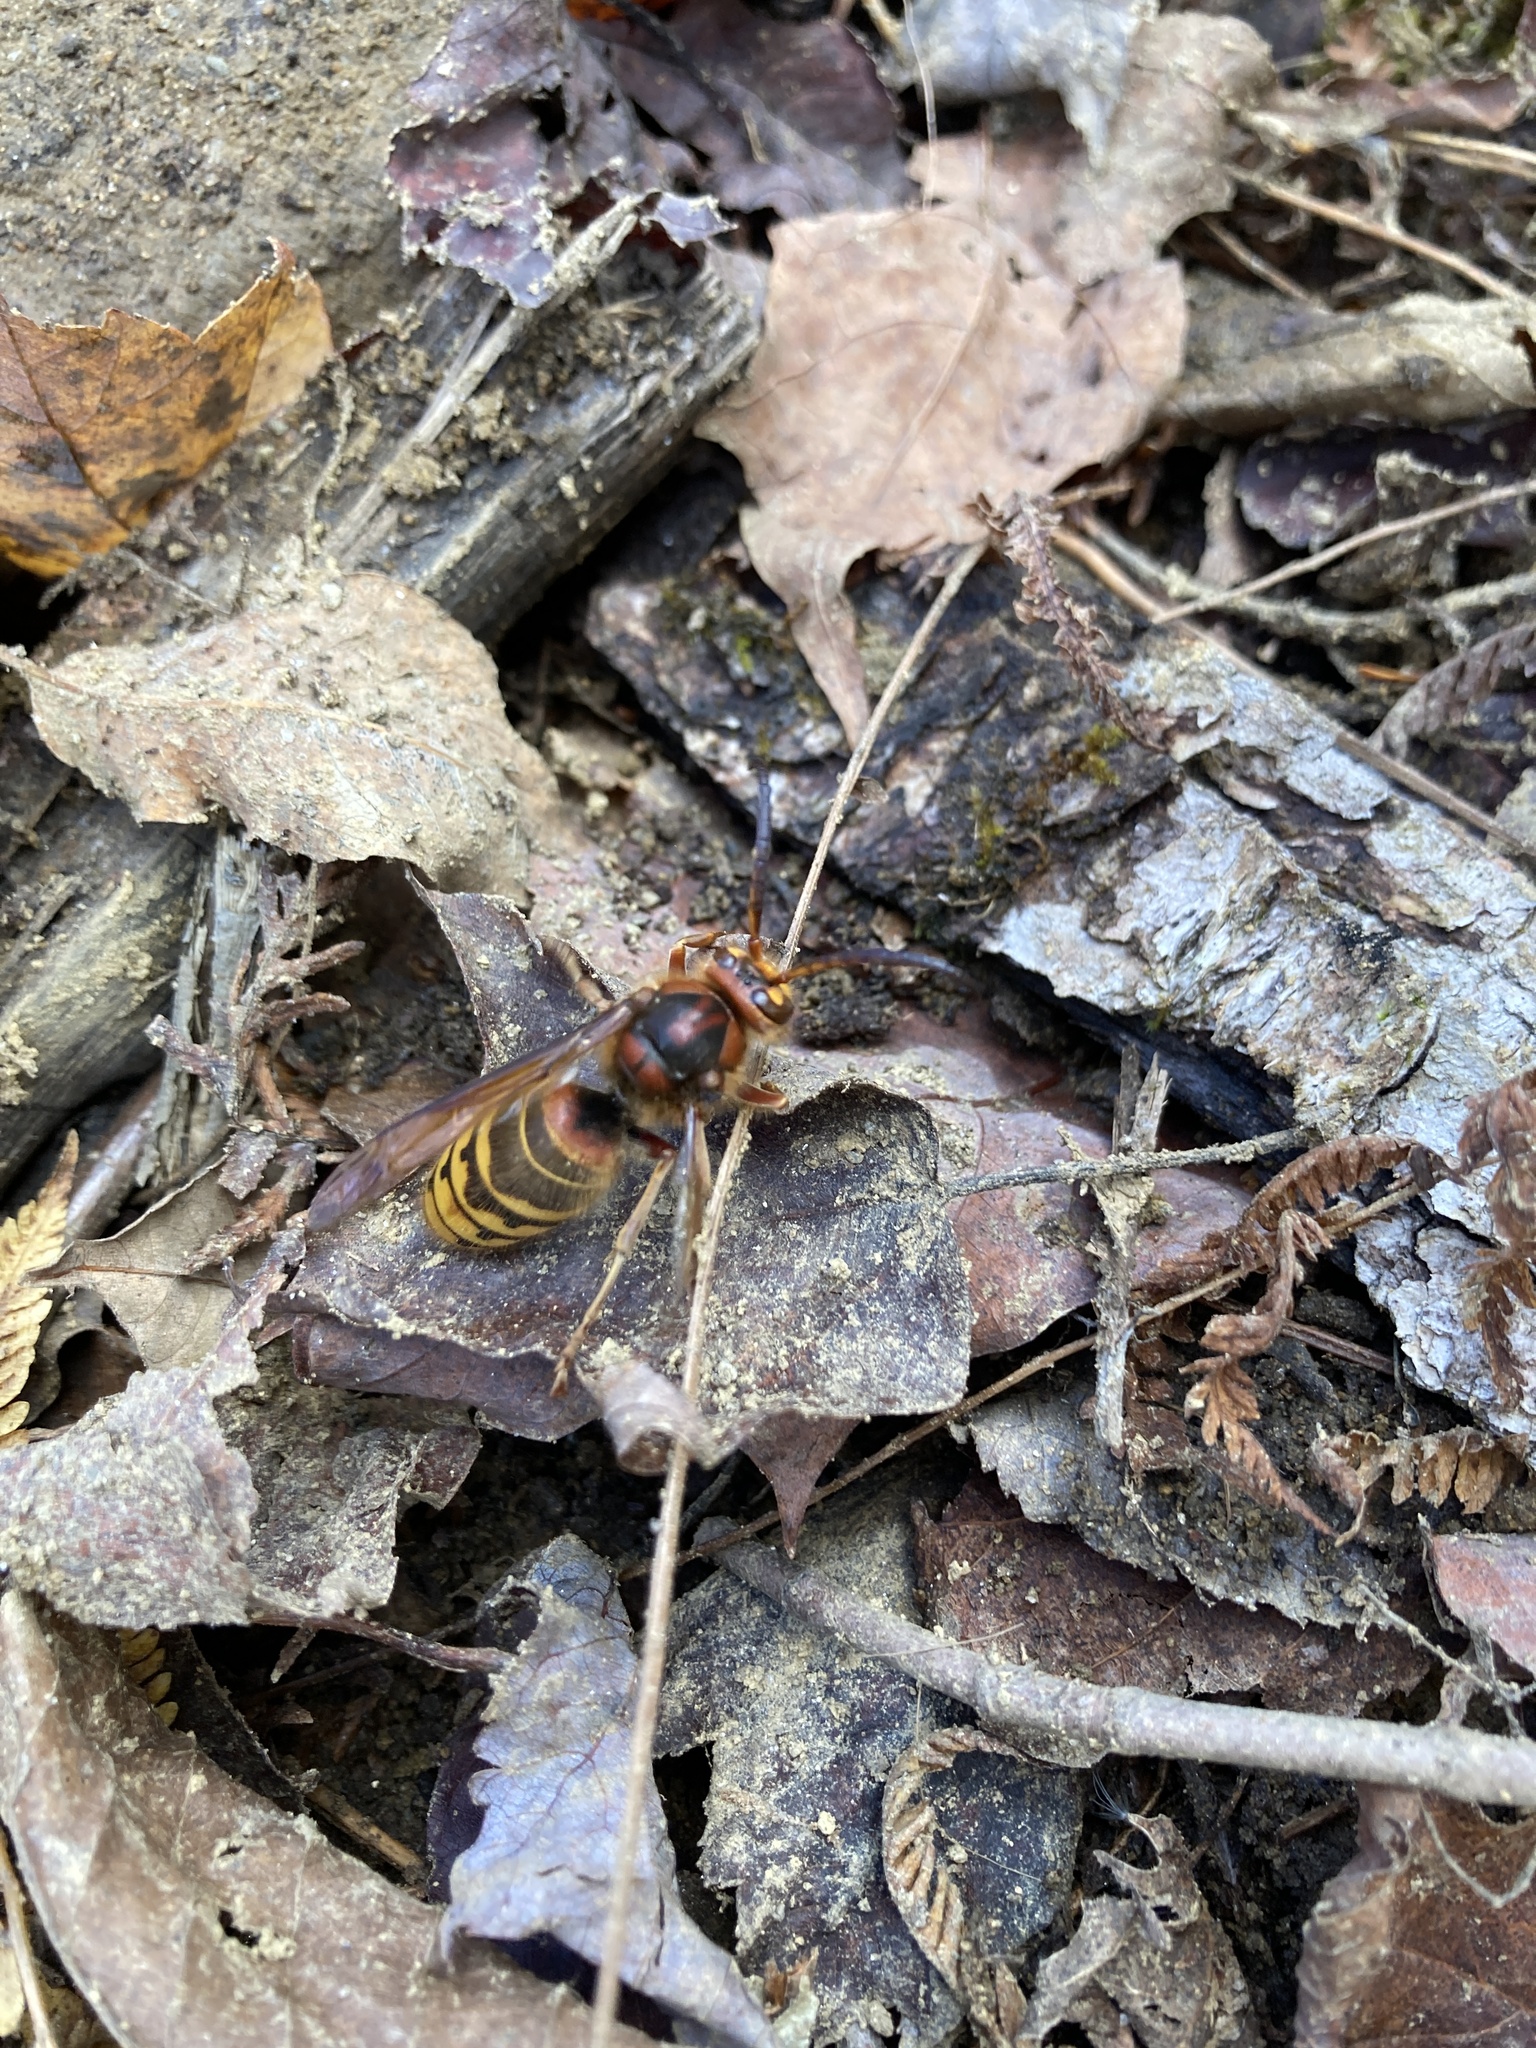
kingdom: Animalia
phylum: Arthropoda
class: Insecta
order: Hymenoptera
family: Vespidae
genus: Vespa
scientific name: Vespa crabro
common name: Hornet
